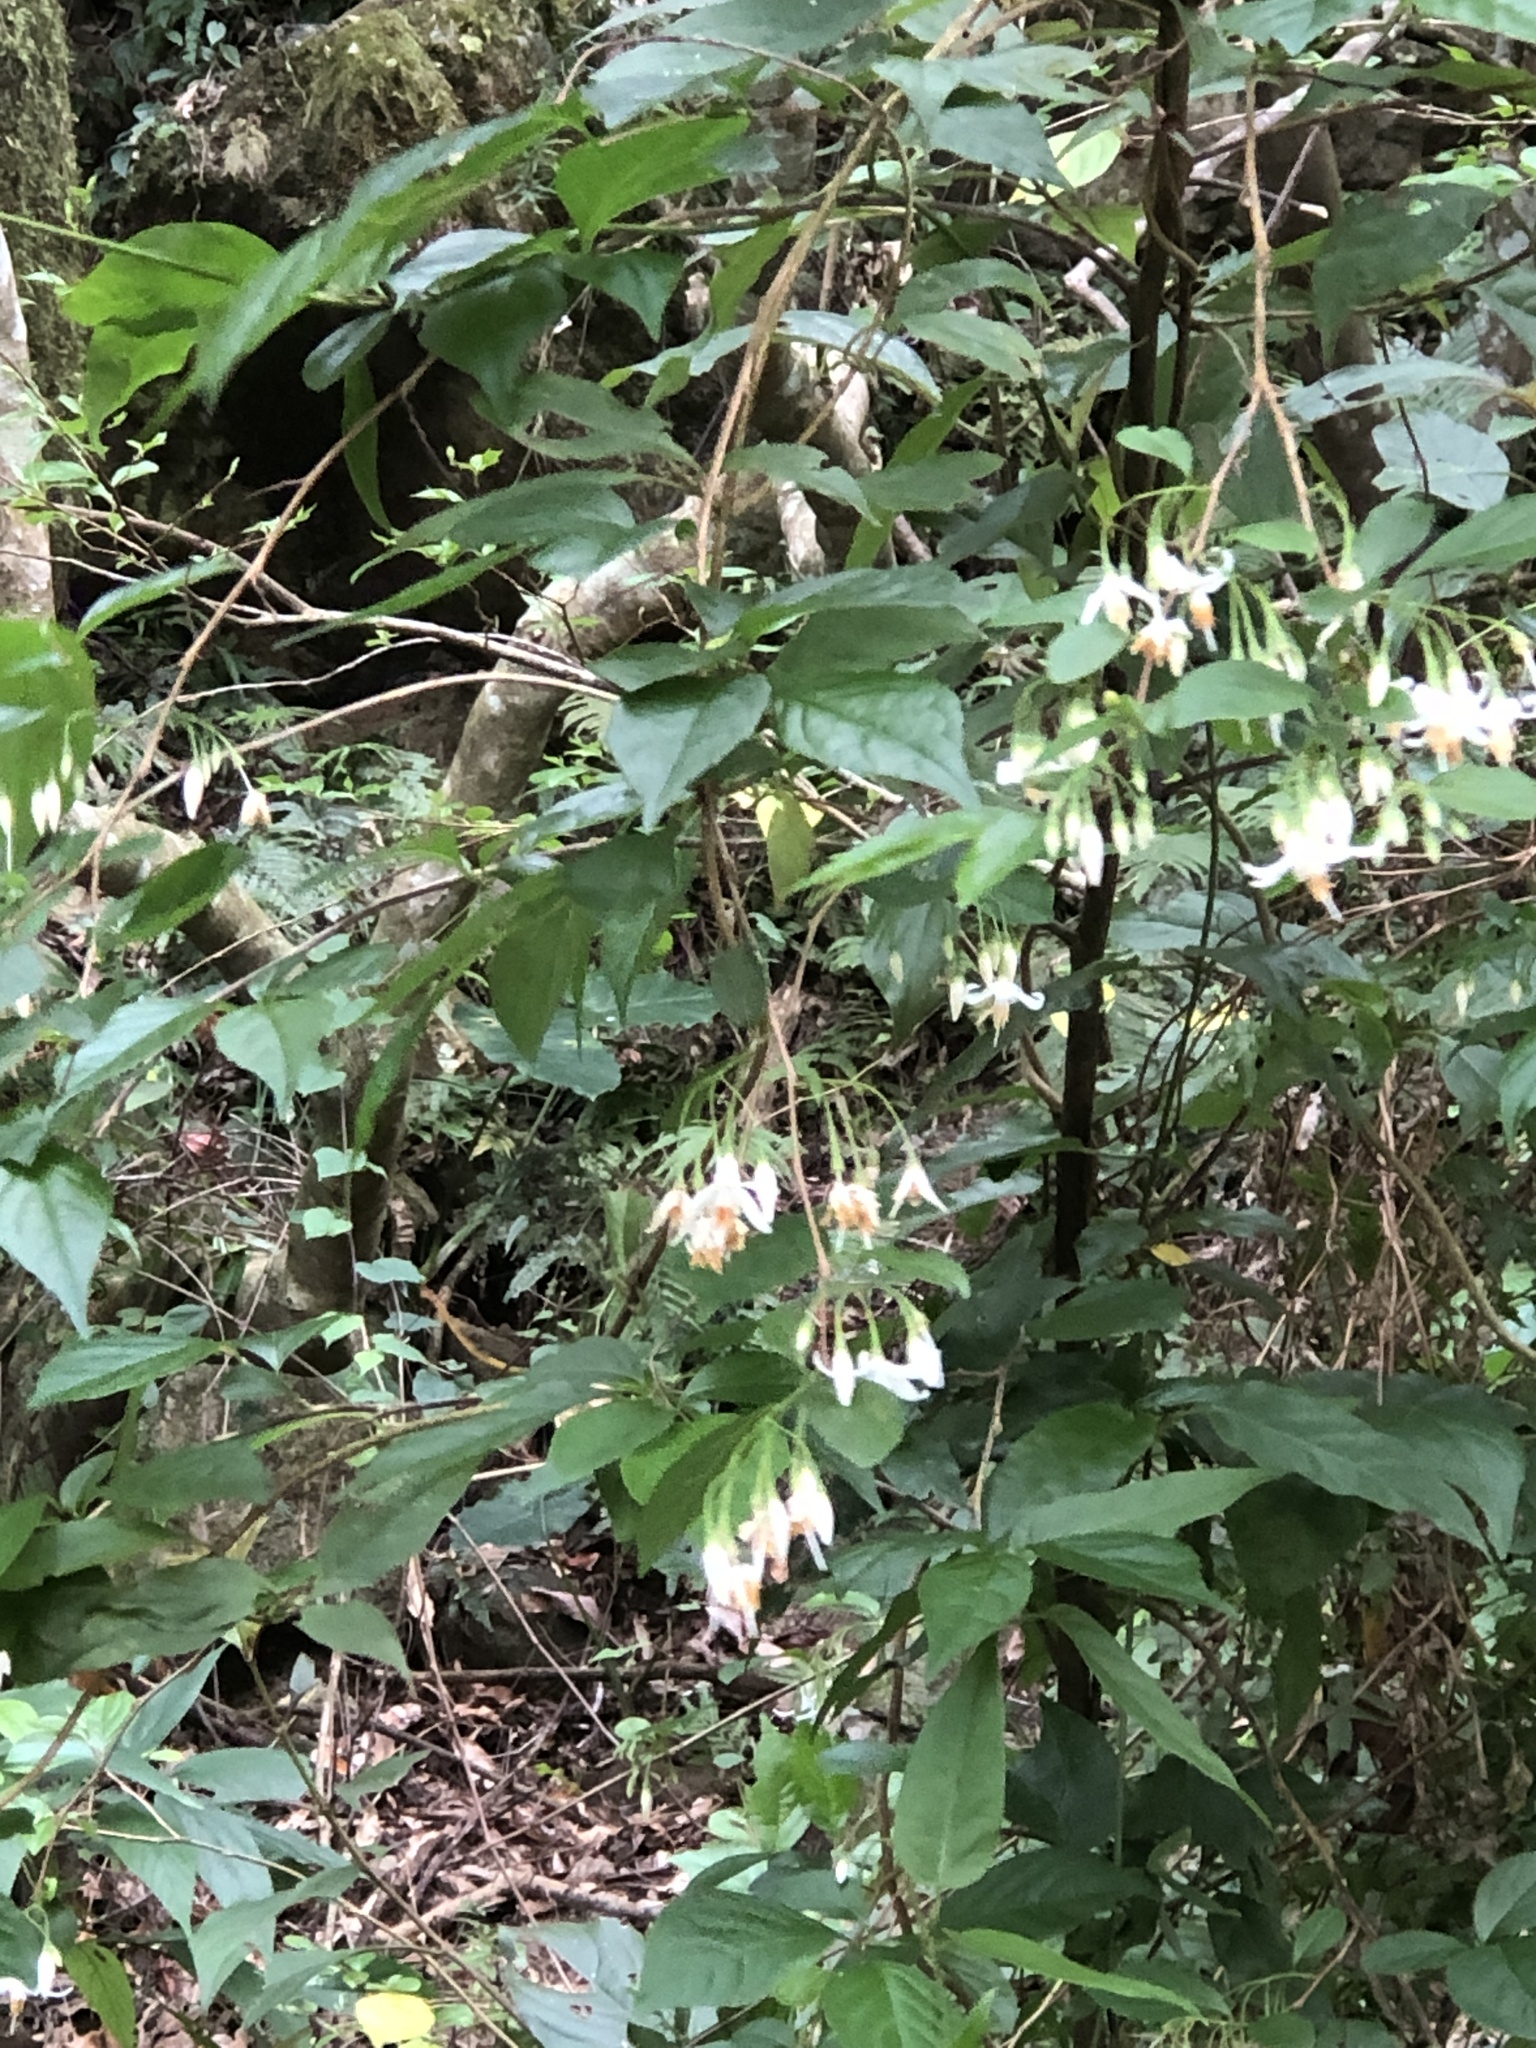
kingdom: Plantae
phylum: Tracheophyta
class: Magnoliopsida
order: Ericales
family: Styracaceae
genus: Styrax
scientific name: Styrax formosanus
